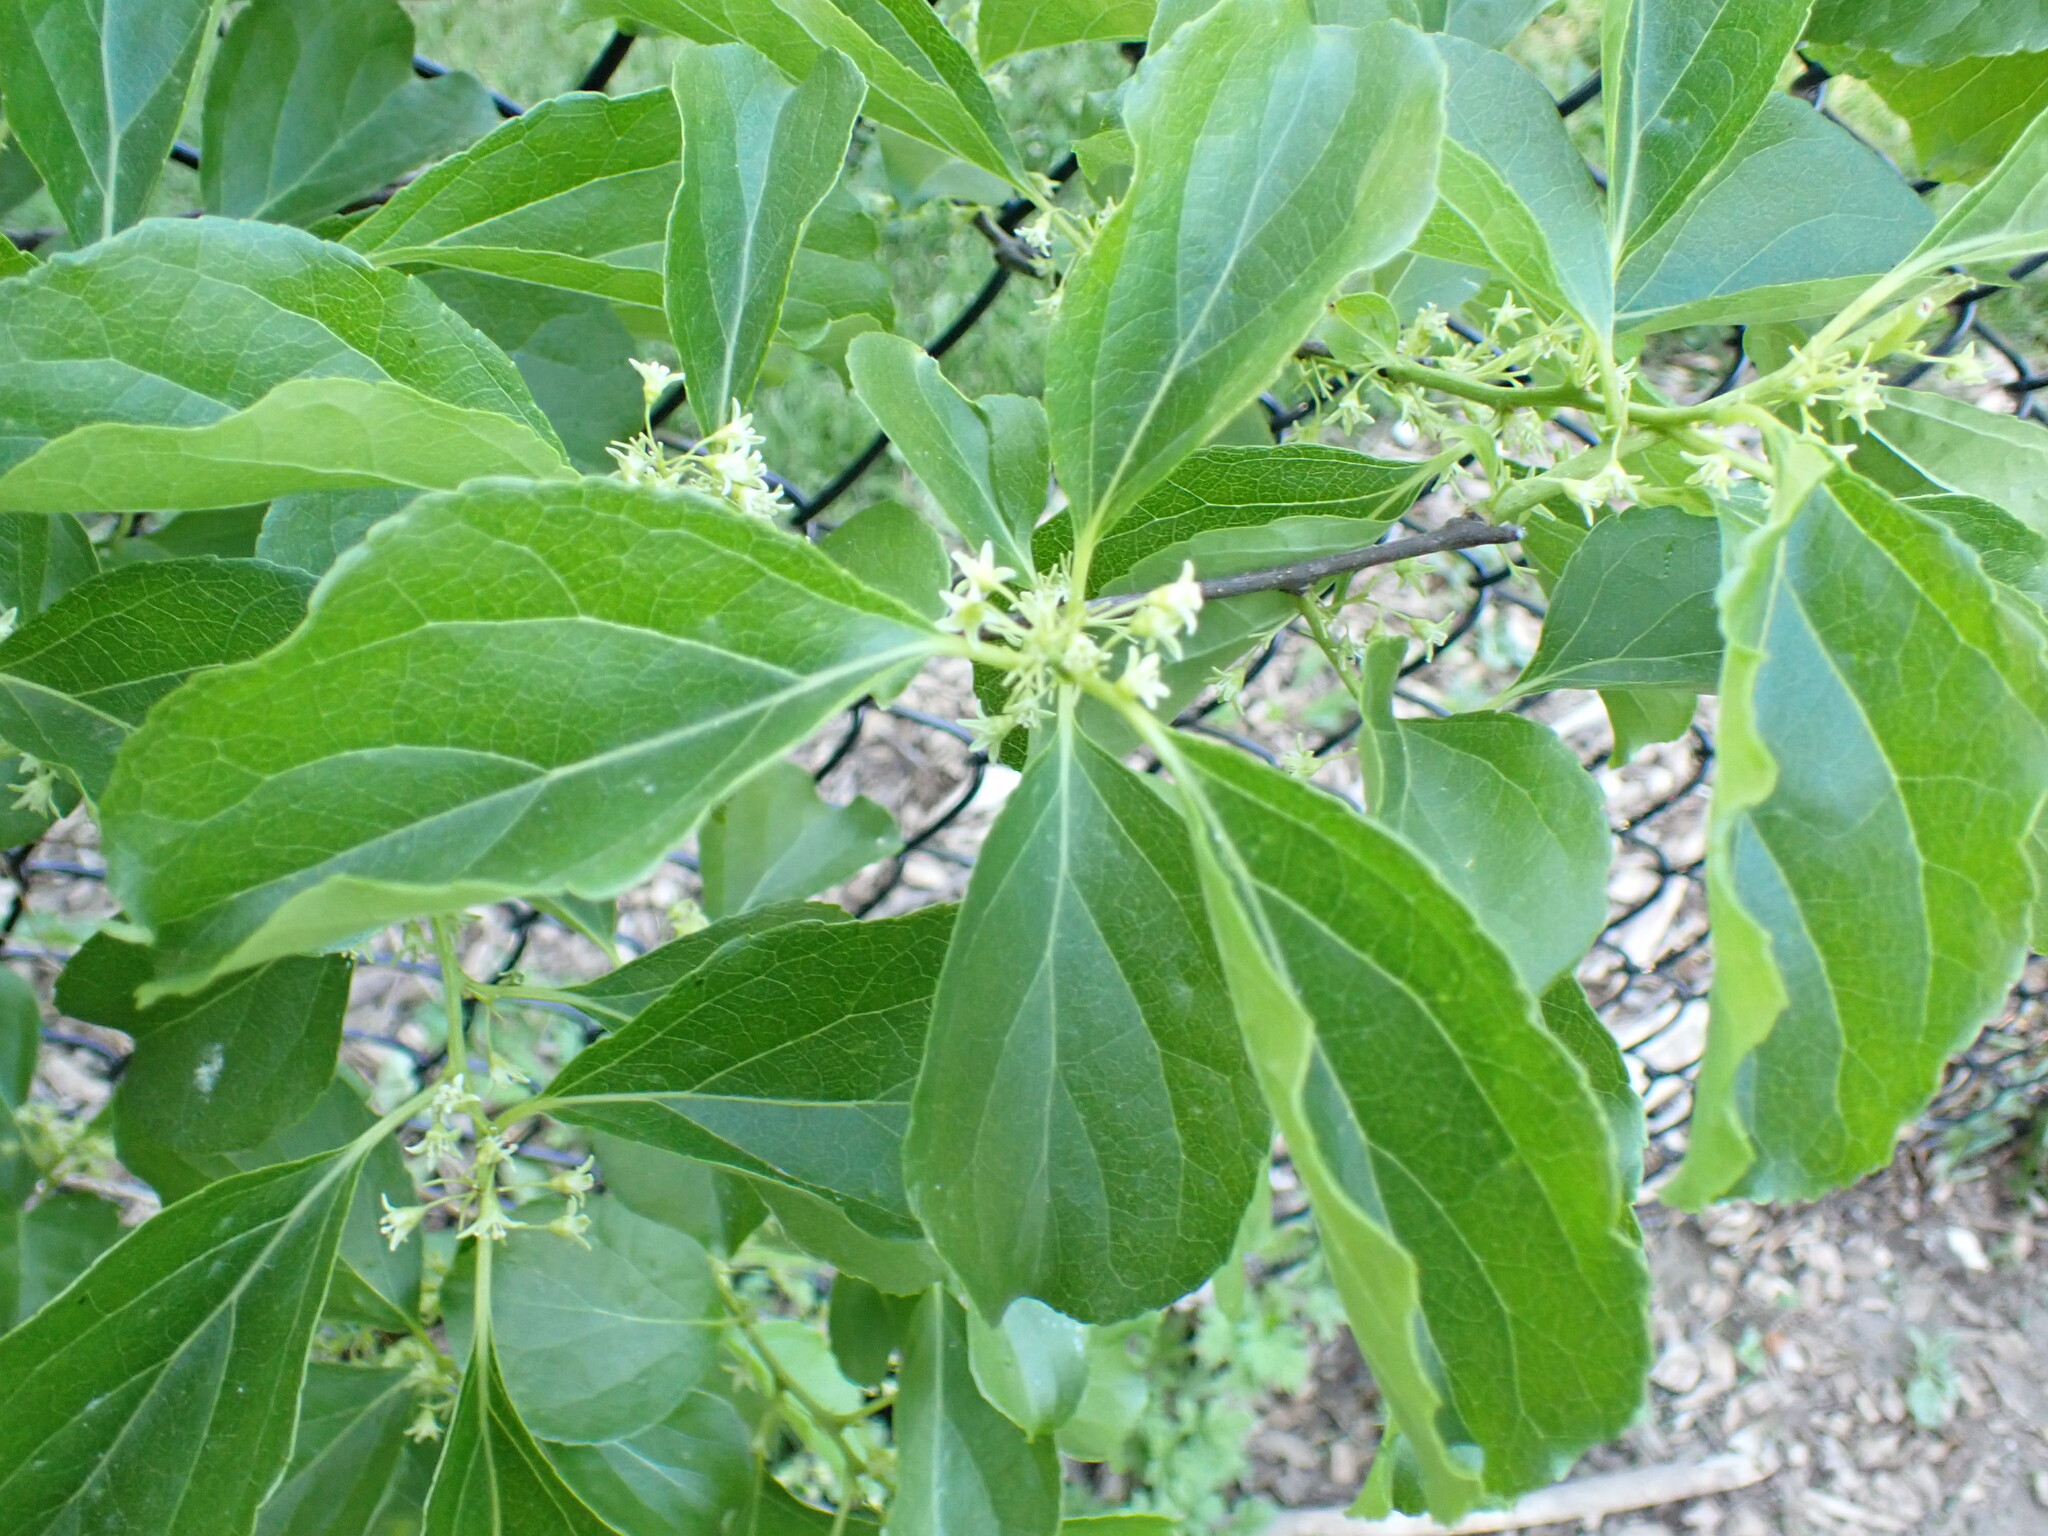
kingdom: Plantae
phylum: Tracheophyta
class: Magnoliopsida
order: Celastrales
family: Celastraceae
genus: Celastrus
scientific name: Celastrus orbiculatus
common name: Oriental bittersweet
